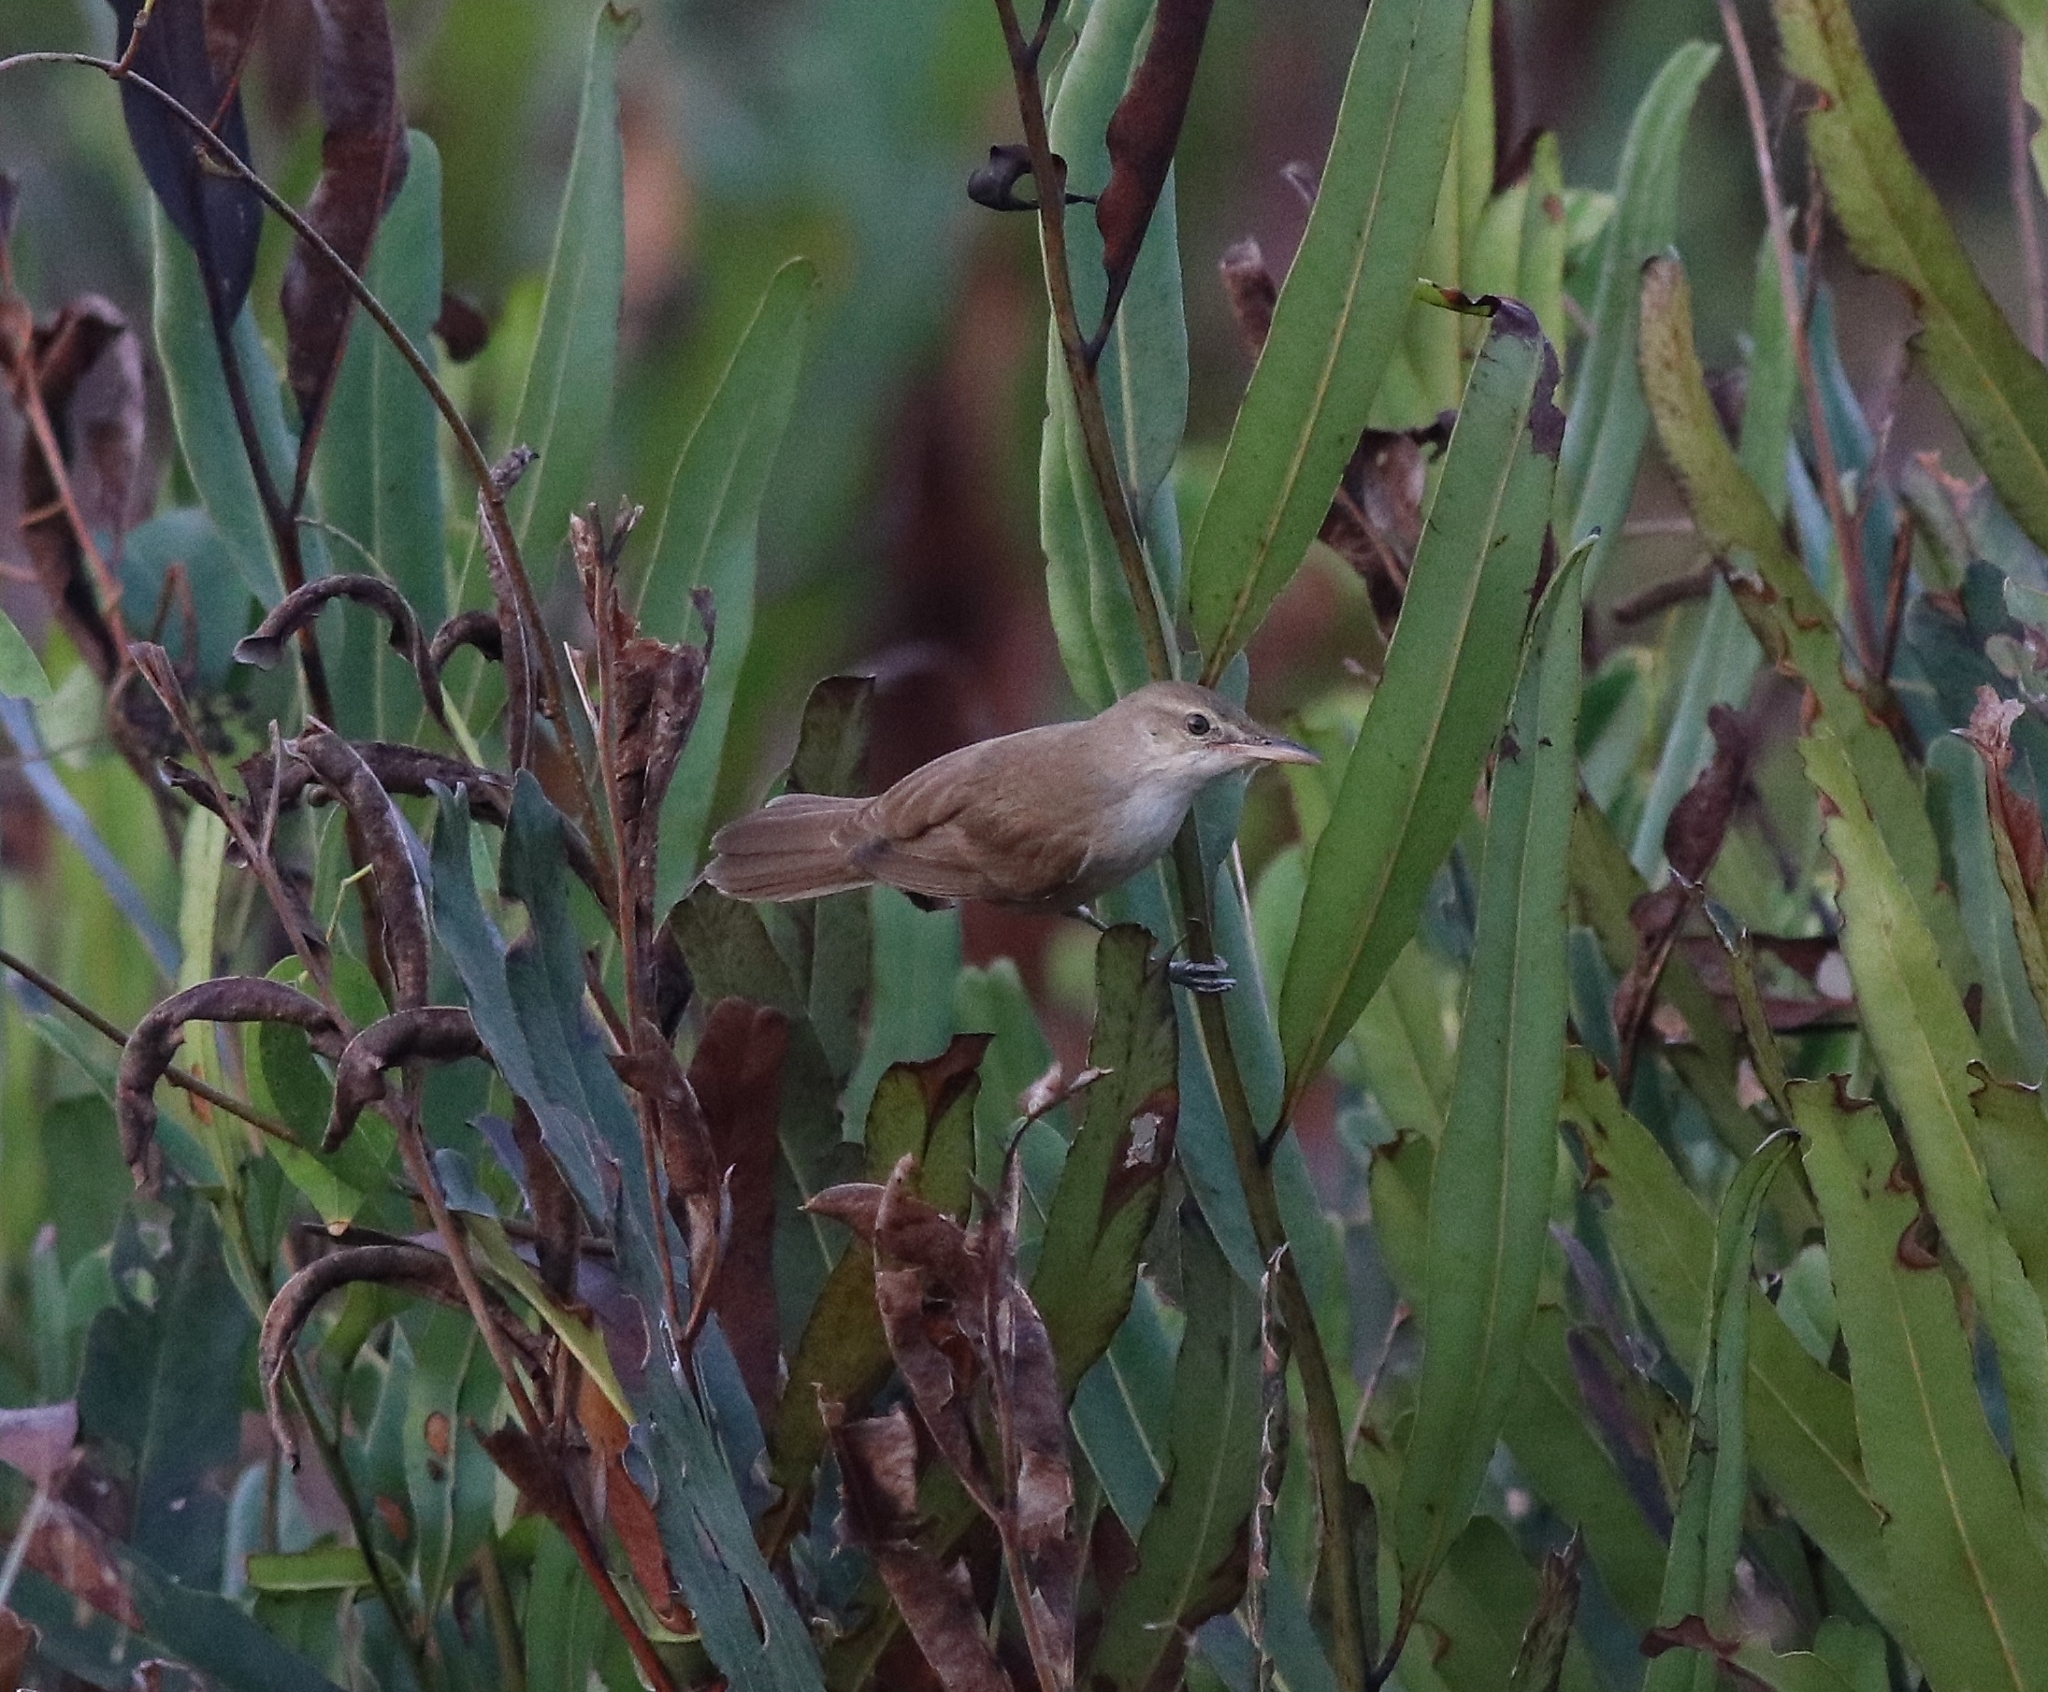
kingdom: Animalia
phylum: Chordata
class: Aves
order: Passeriformes
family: Acrocephalidae
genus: Acrocephalus
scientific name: Acrocephalus stentoreus
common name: Clamorous reed warbler
